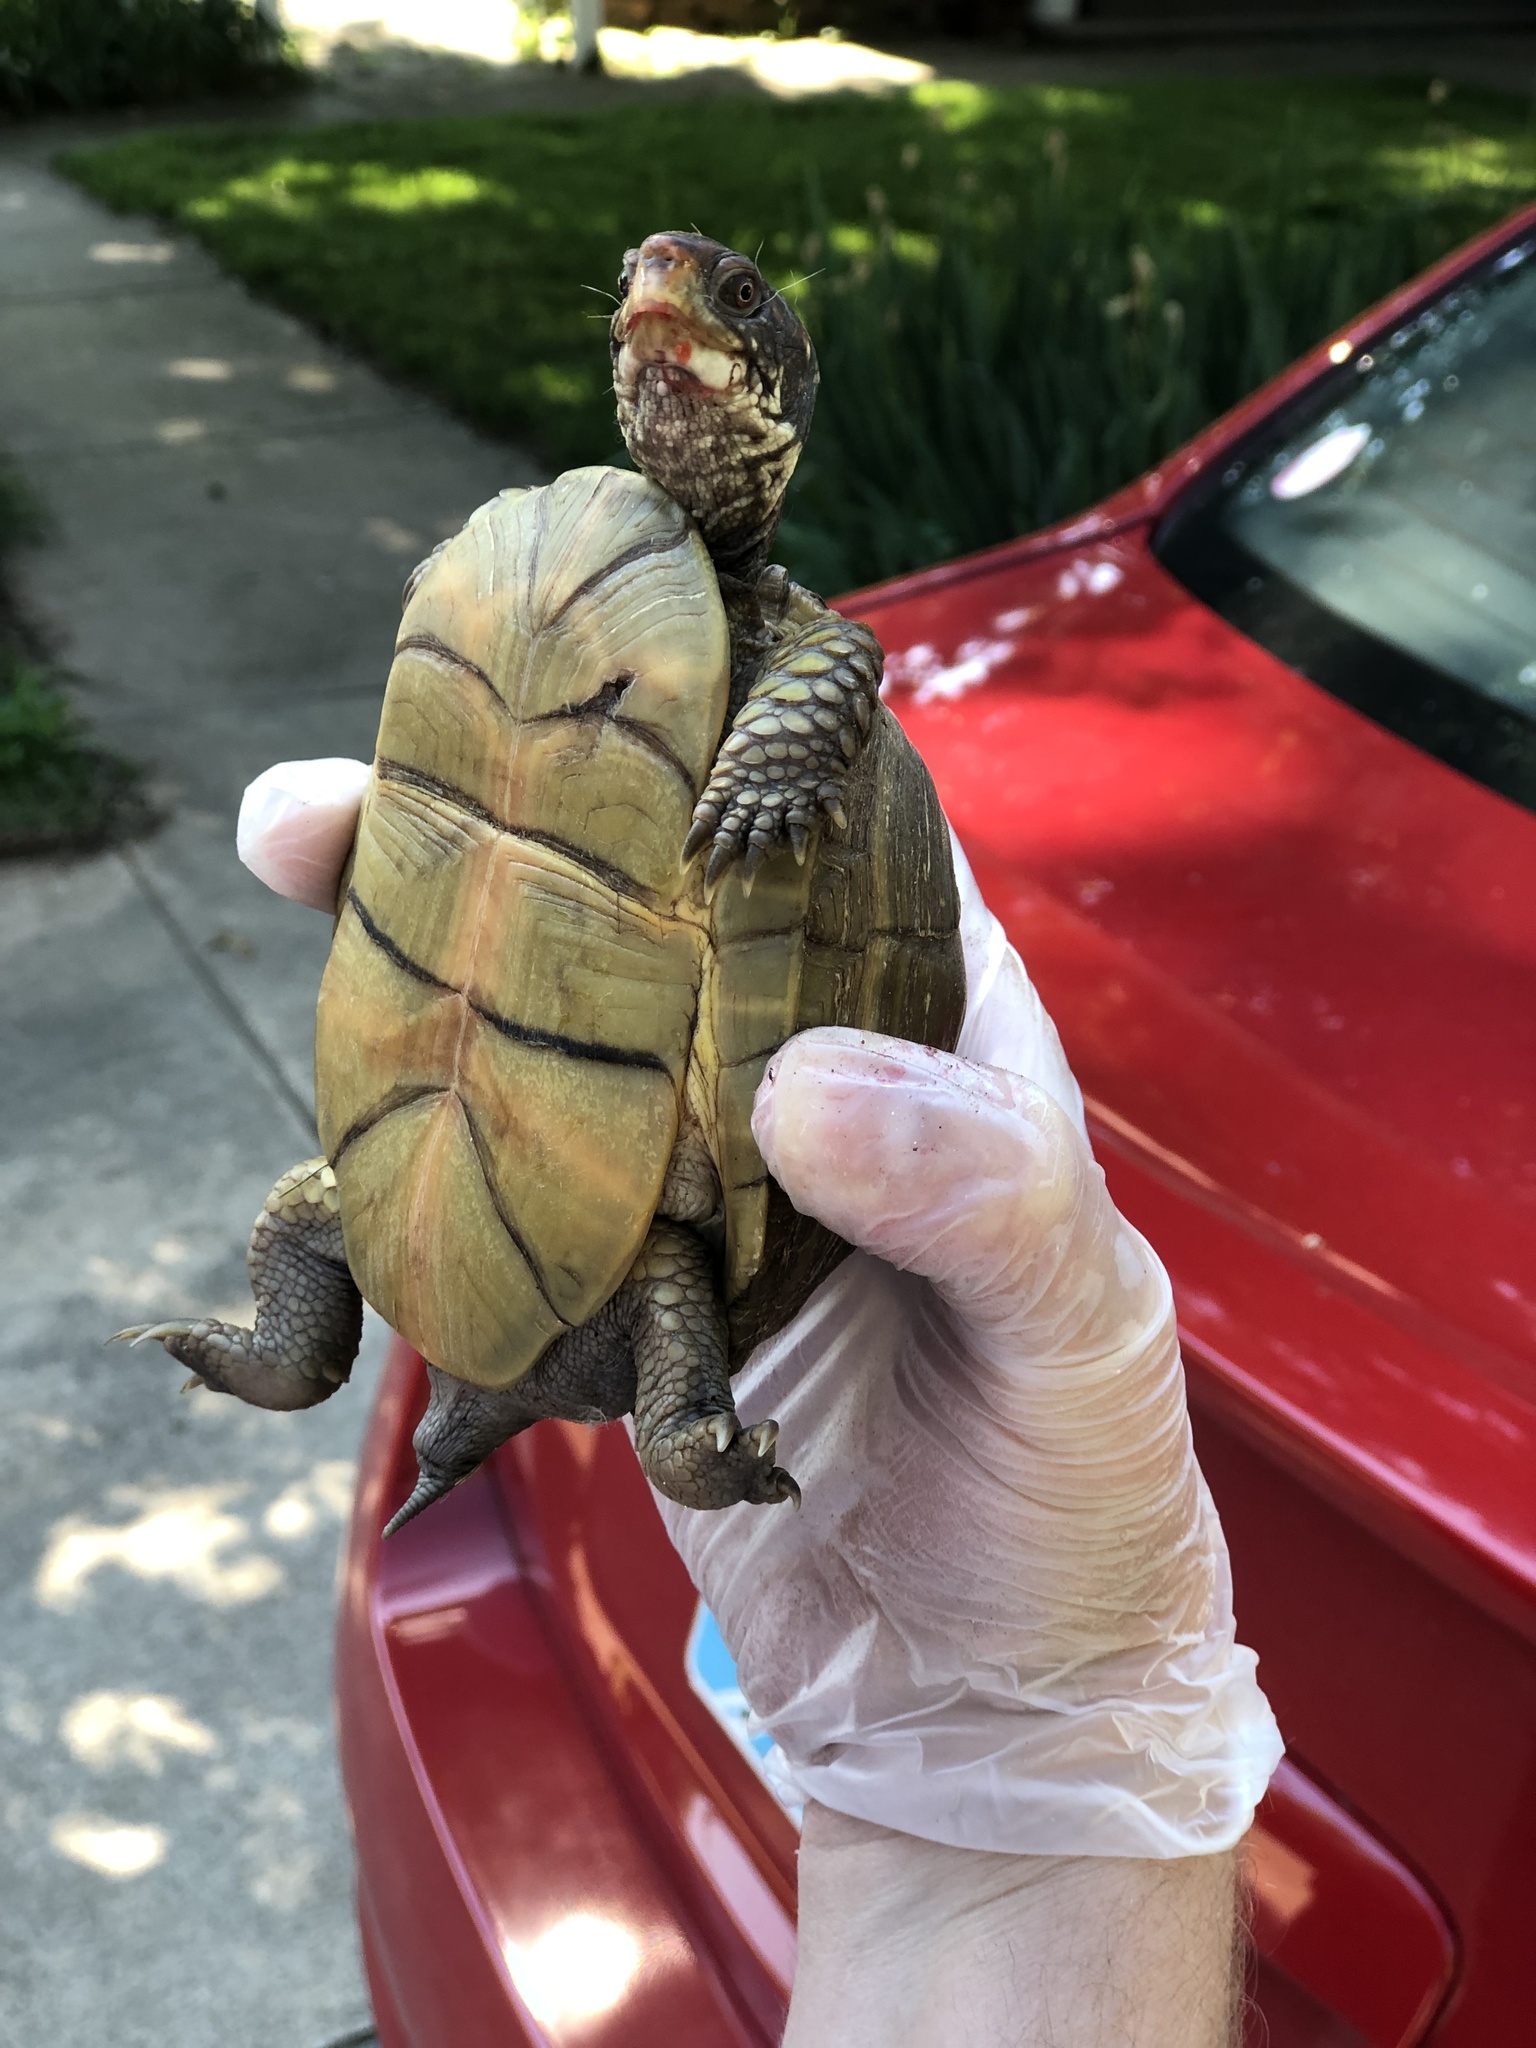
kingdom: Animalia
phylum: Chordata
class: Testudines
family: Emydidae
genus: Terrapene
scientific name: Terrapene carolina
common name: Common box turtle
